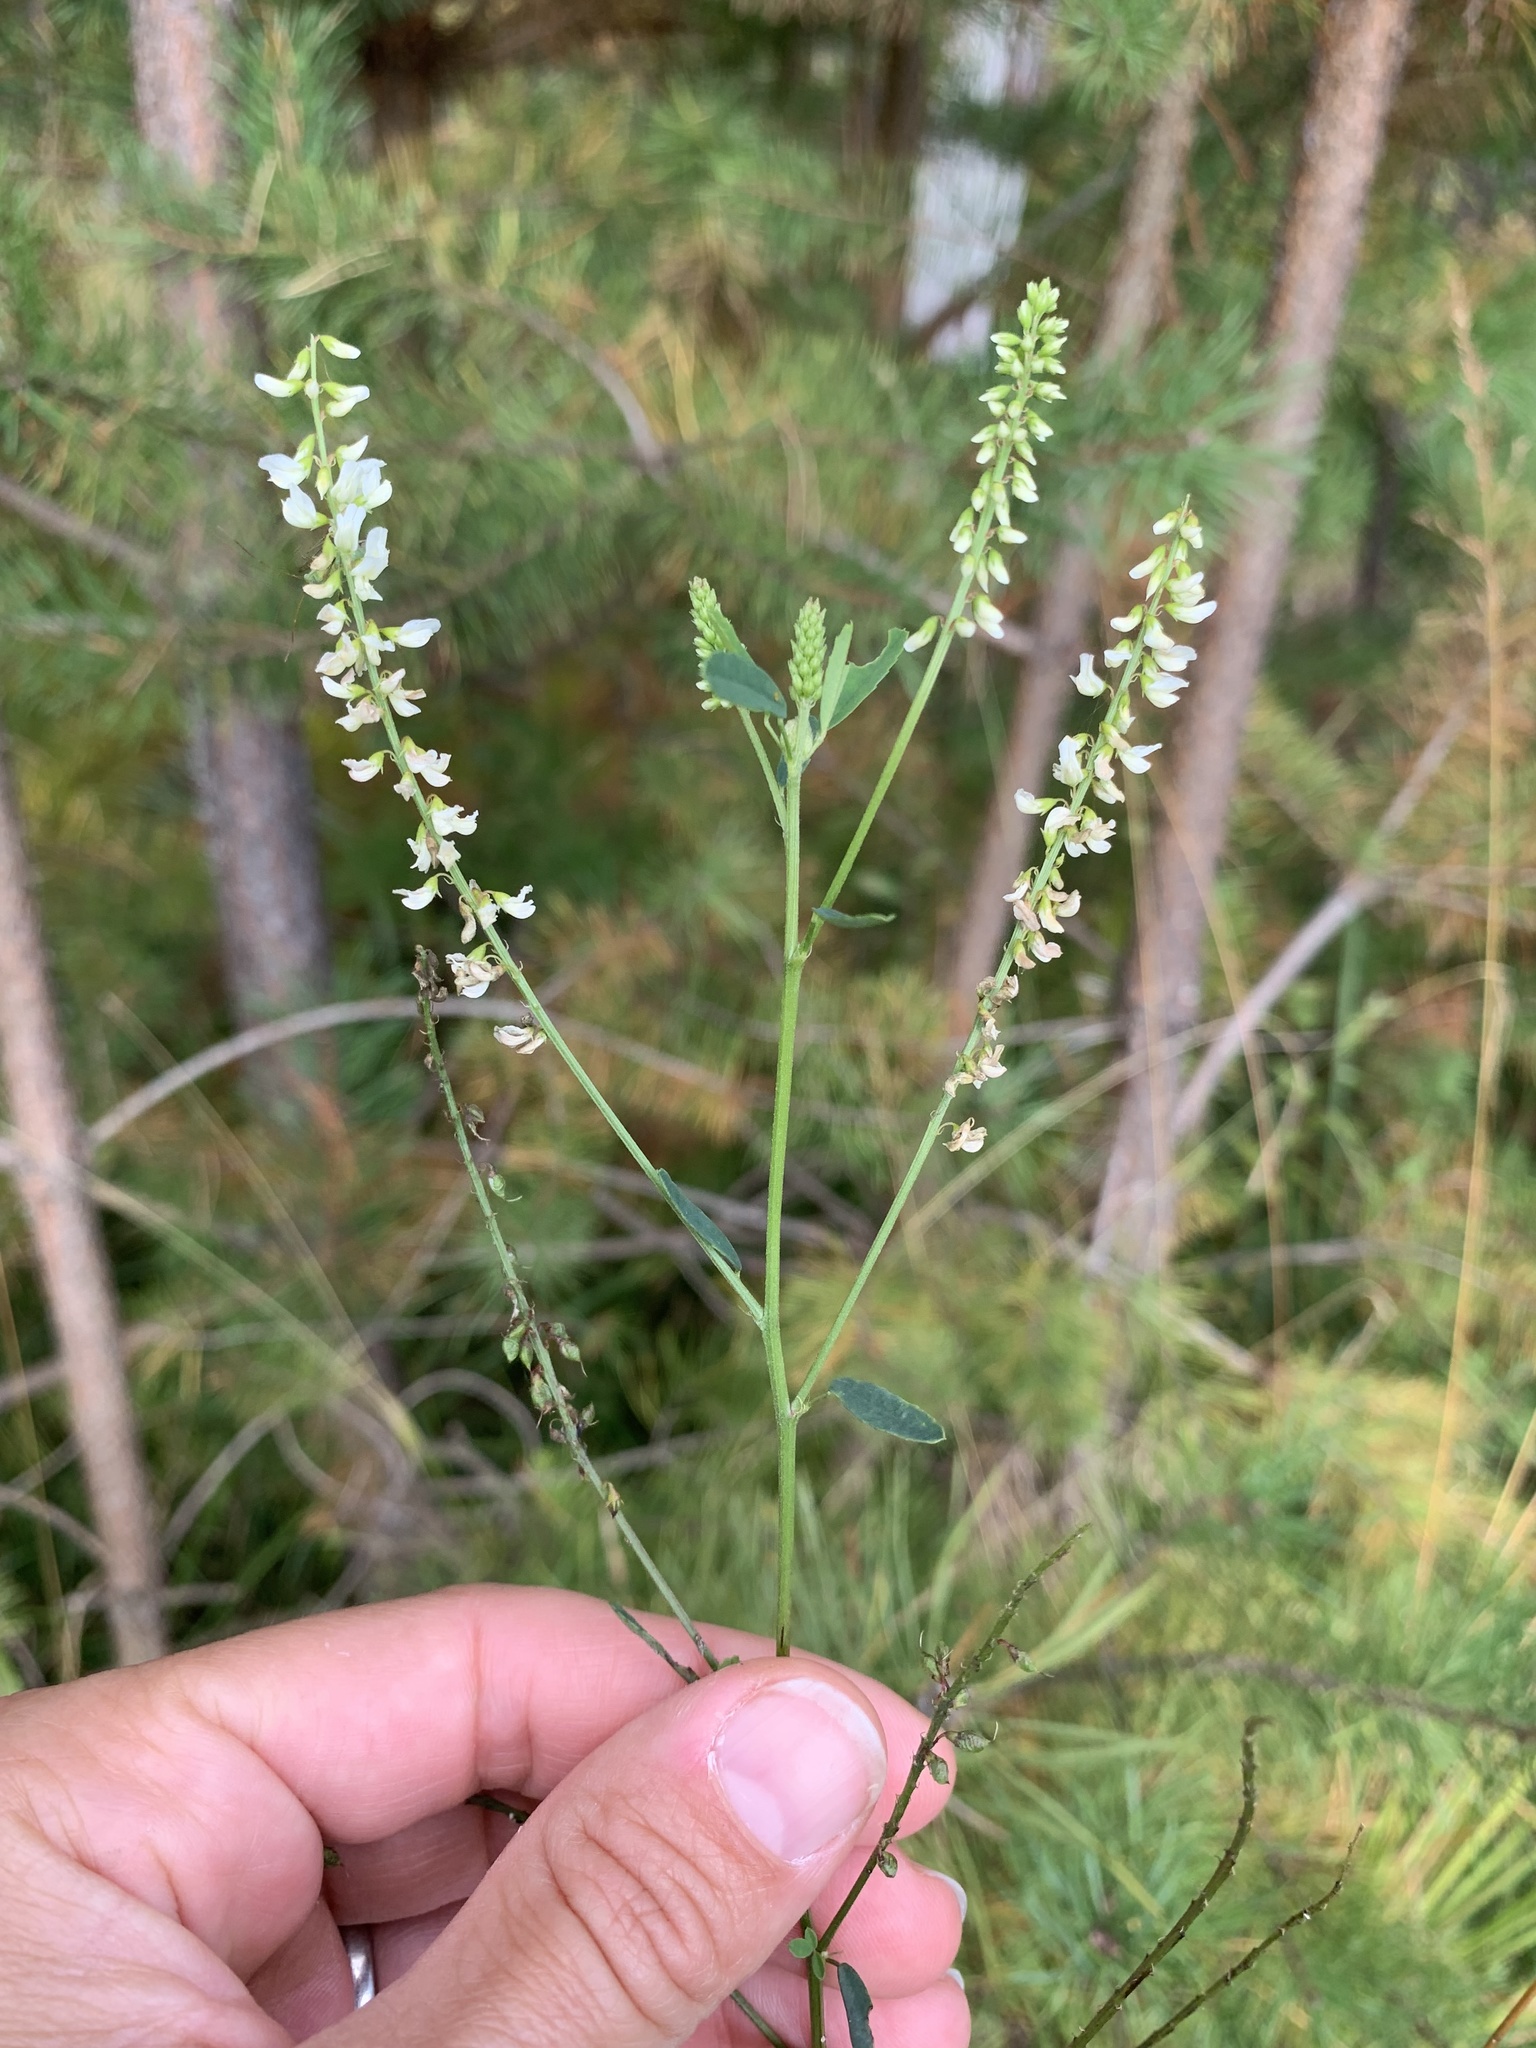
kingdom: Plantae
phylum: Tracheophyta
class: Magnoliopsida
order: Fabales
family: Fabaceae
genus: Melilotus
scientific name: Melilotus albus
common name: White melilot
